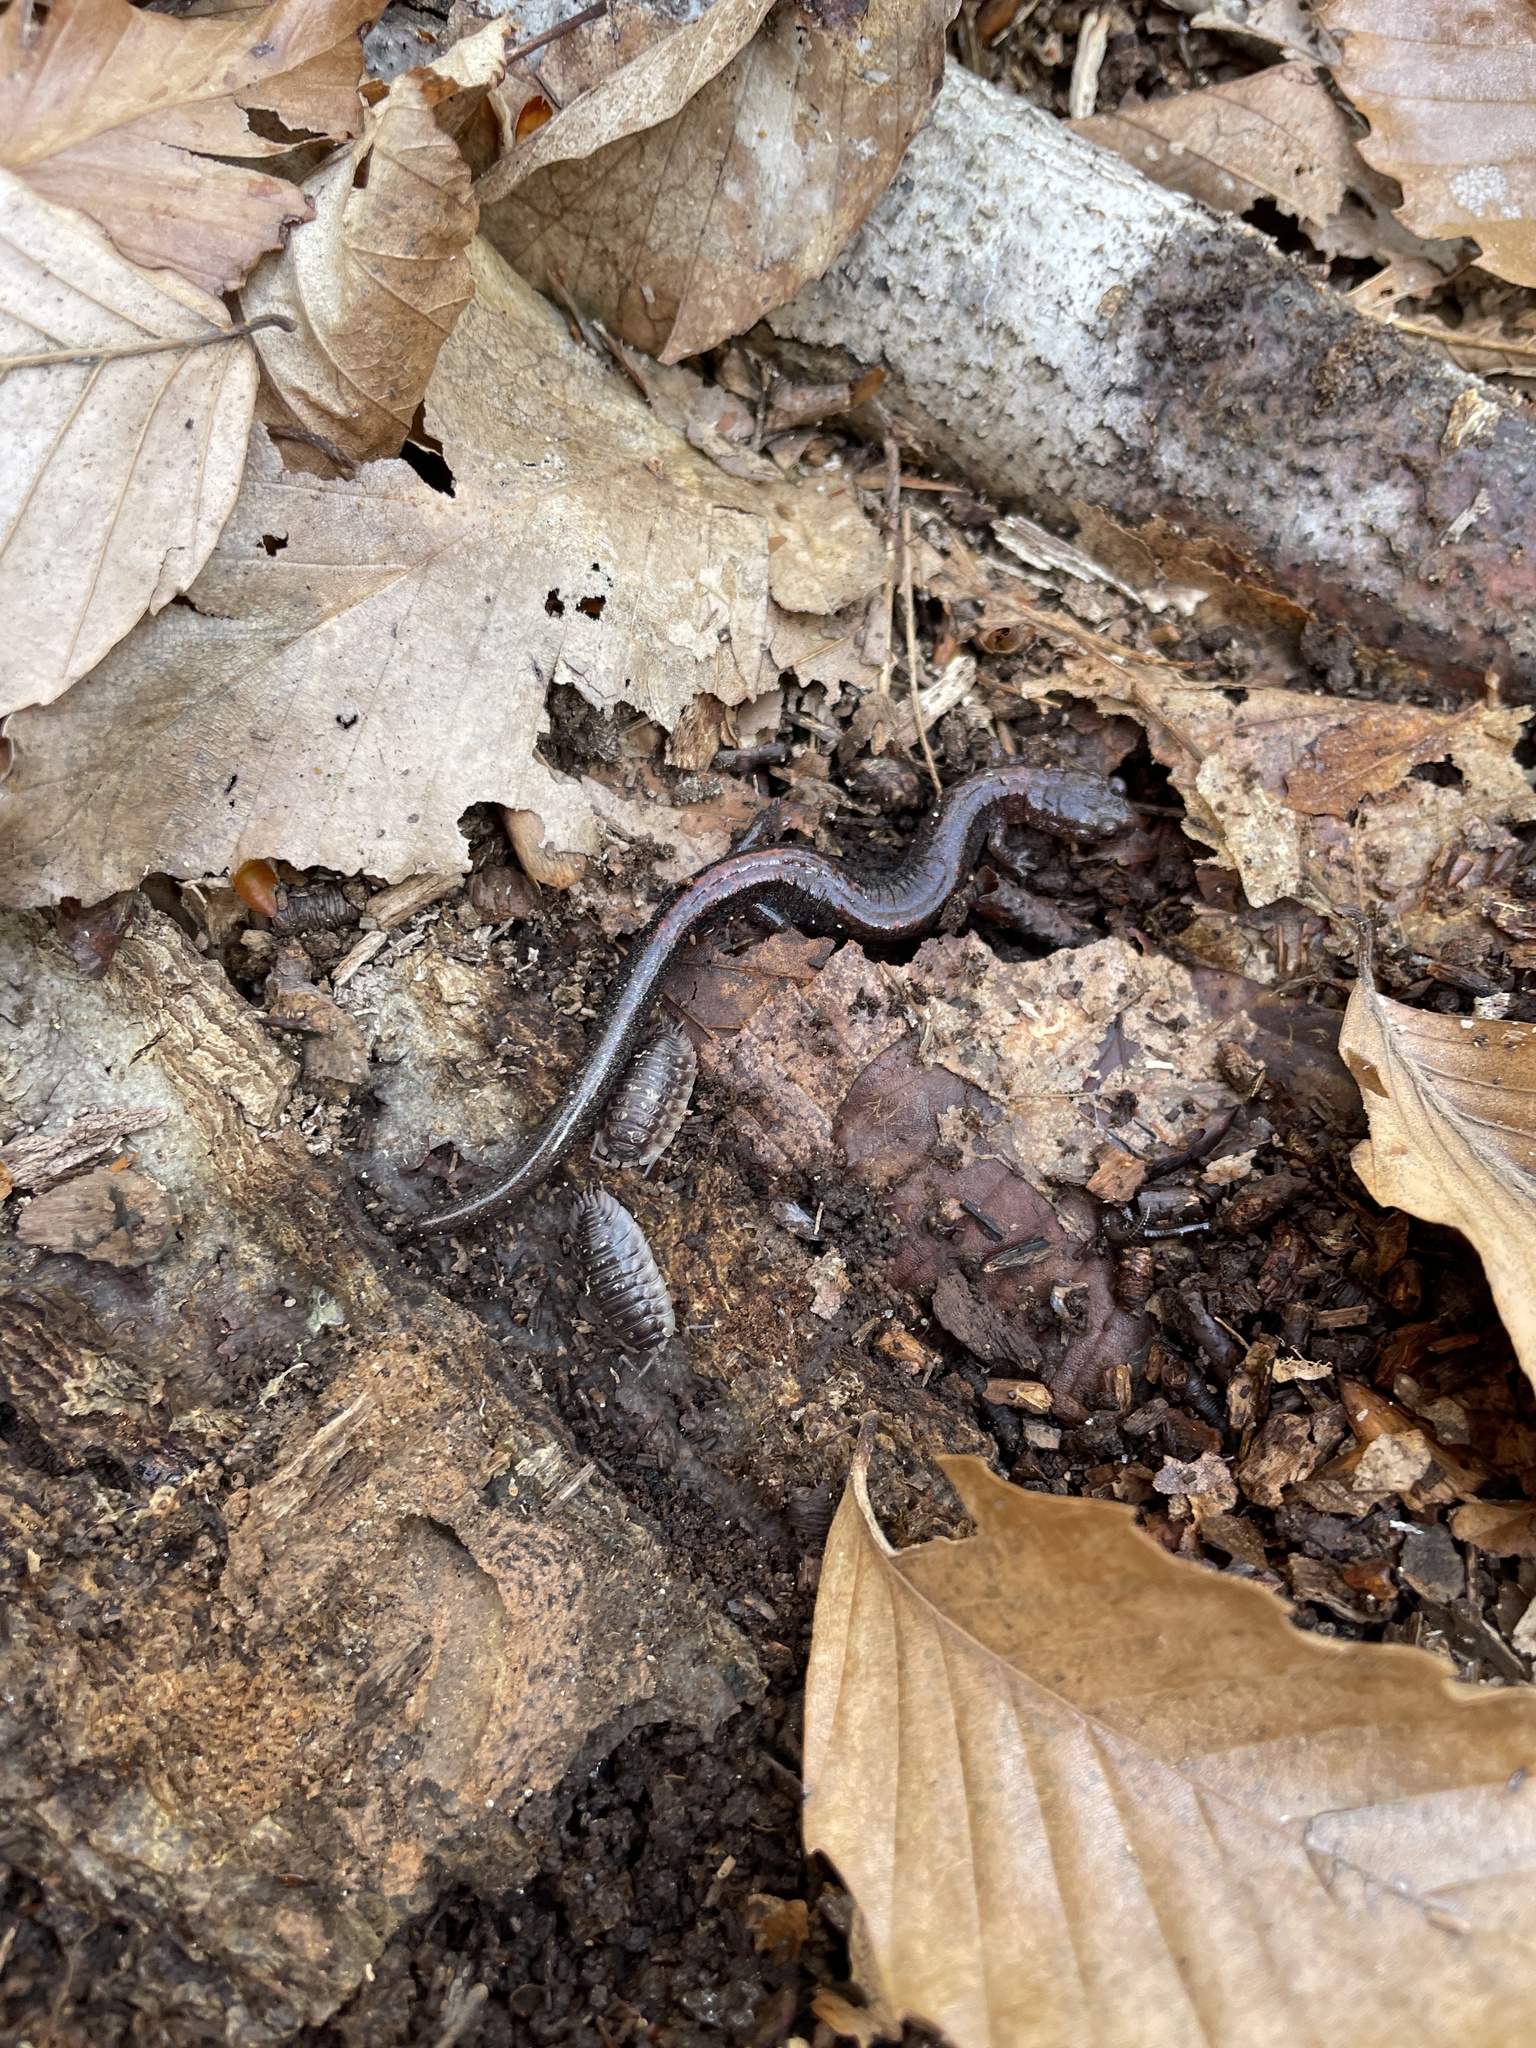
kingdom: Animalia
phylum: Chordata
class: Amphibia
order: Caudata
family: Plethodontidae
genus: Plethodon
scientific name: Plethodon cinereus
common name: Redback salamander
